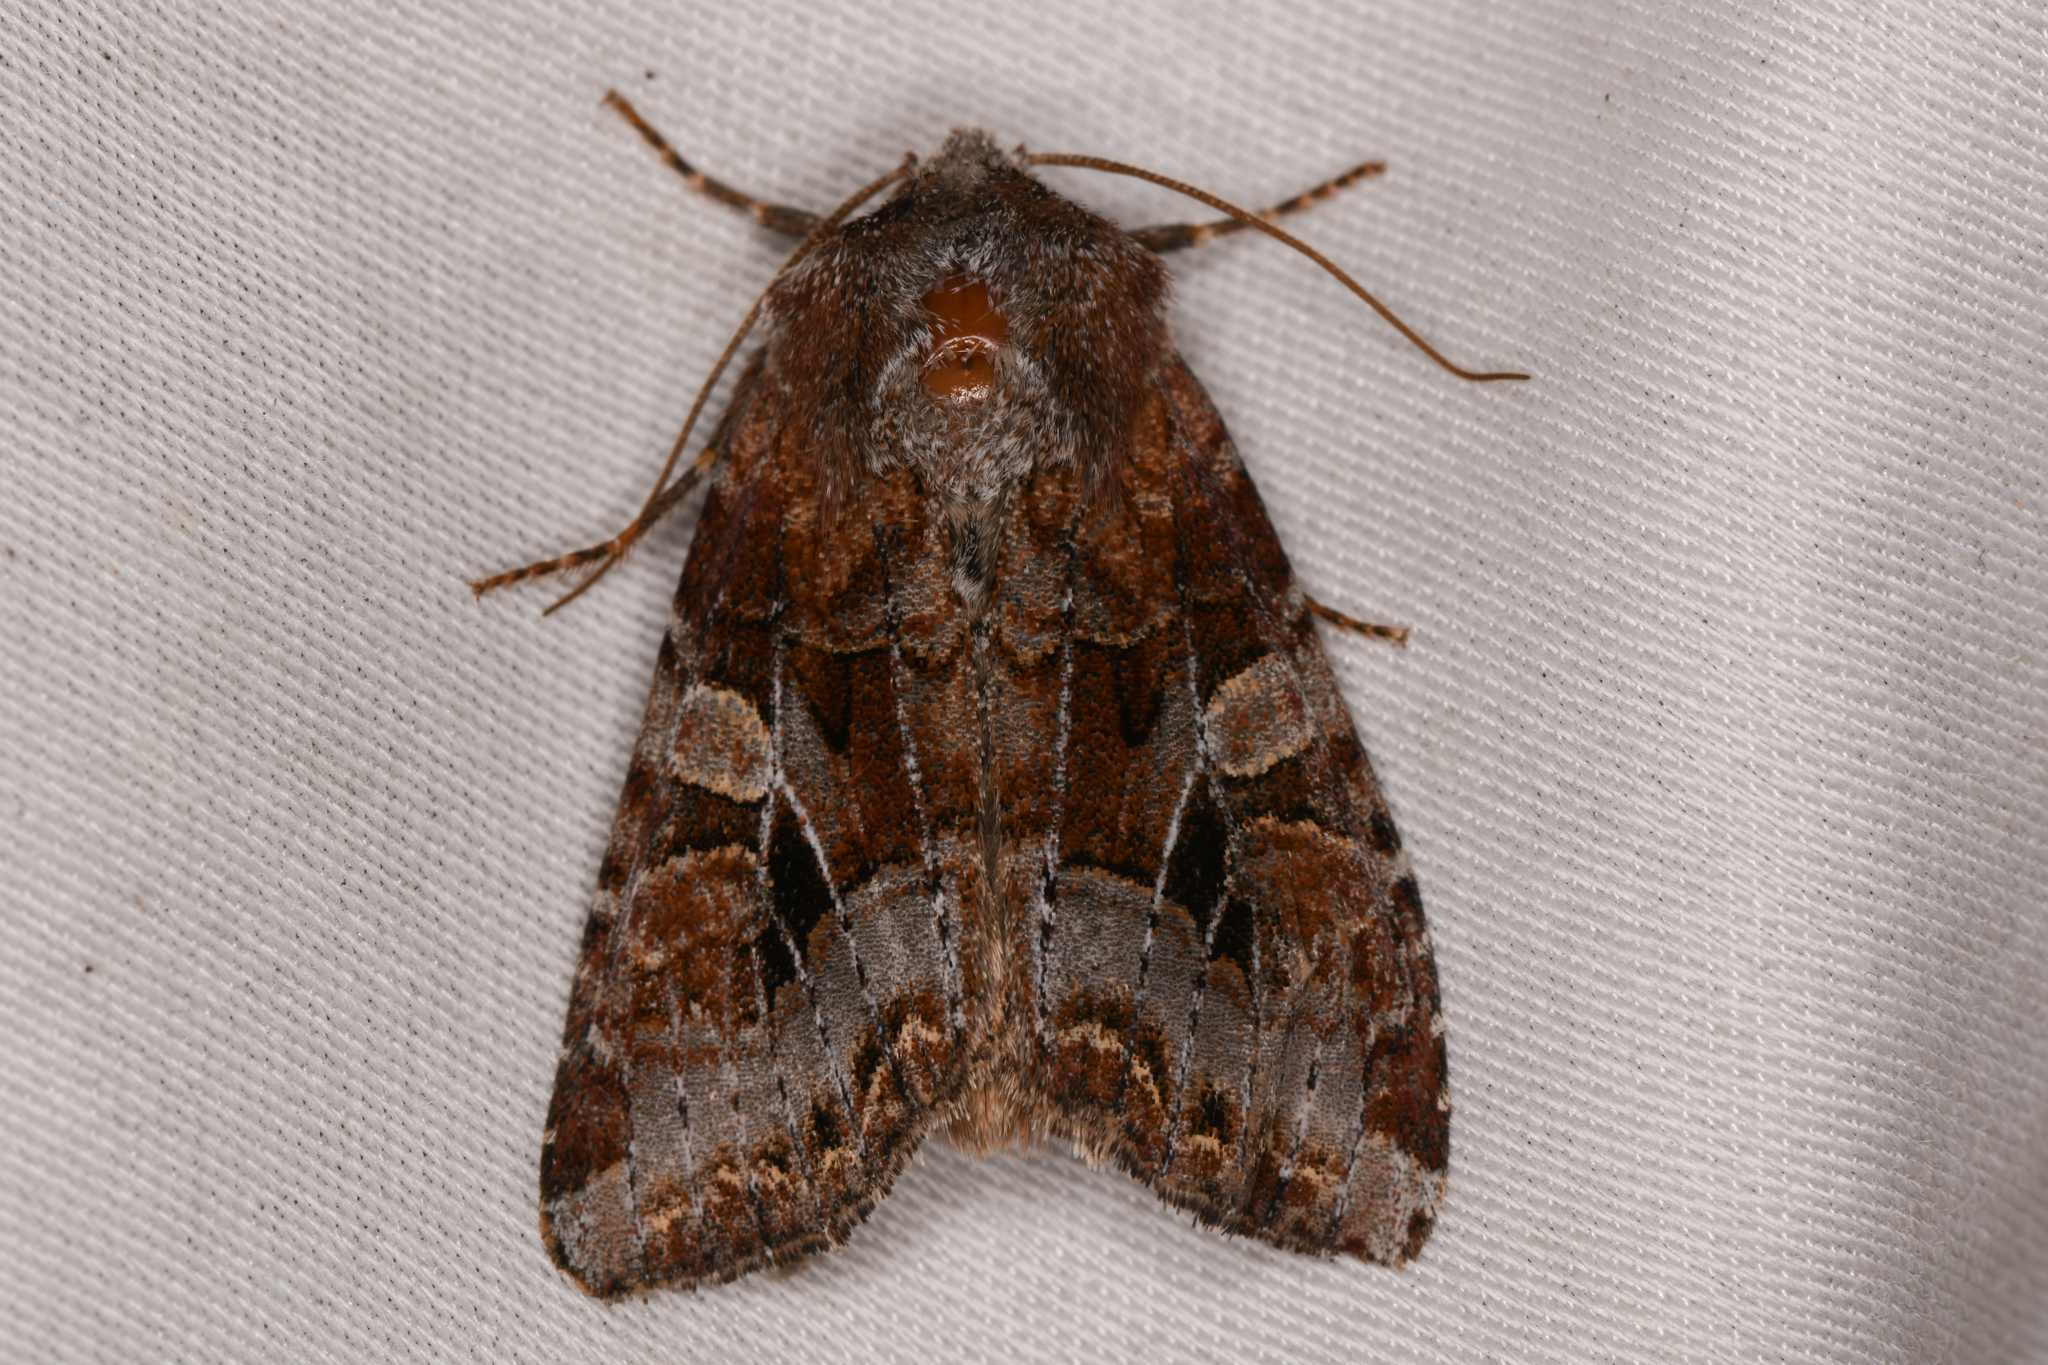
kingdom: Animalia
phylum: Arthropoda
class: Insecta
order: Lepidoptera
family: Noctuidae
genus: Trichordestra
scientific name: Trichordestra tacoma
